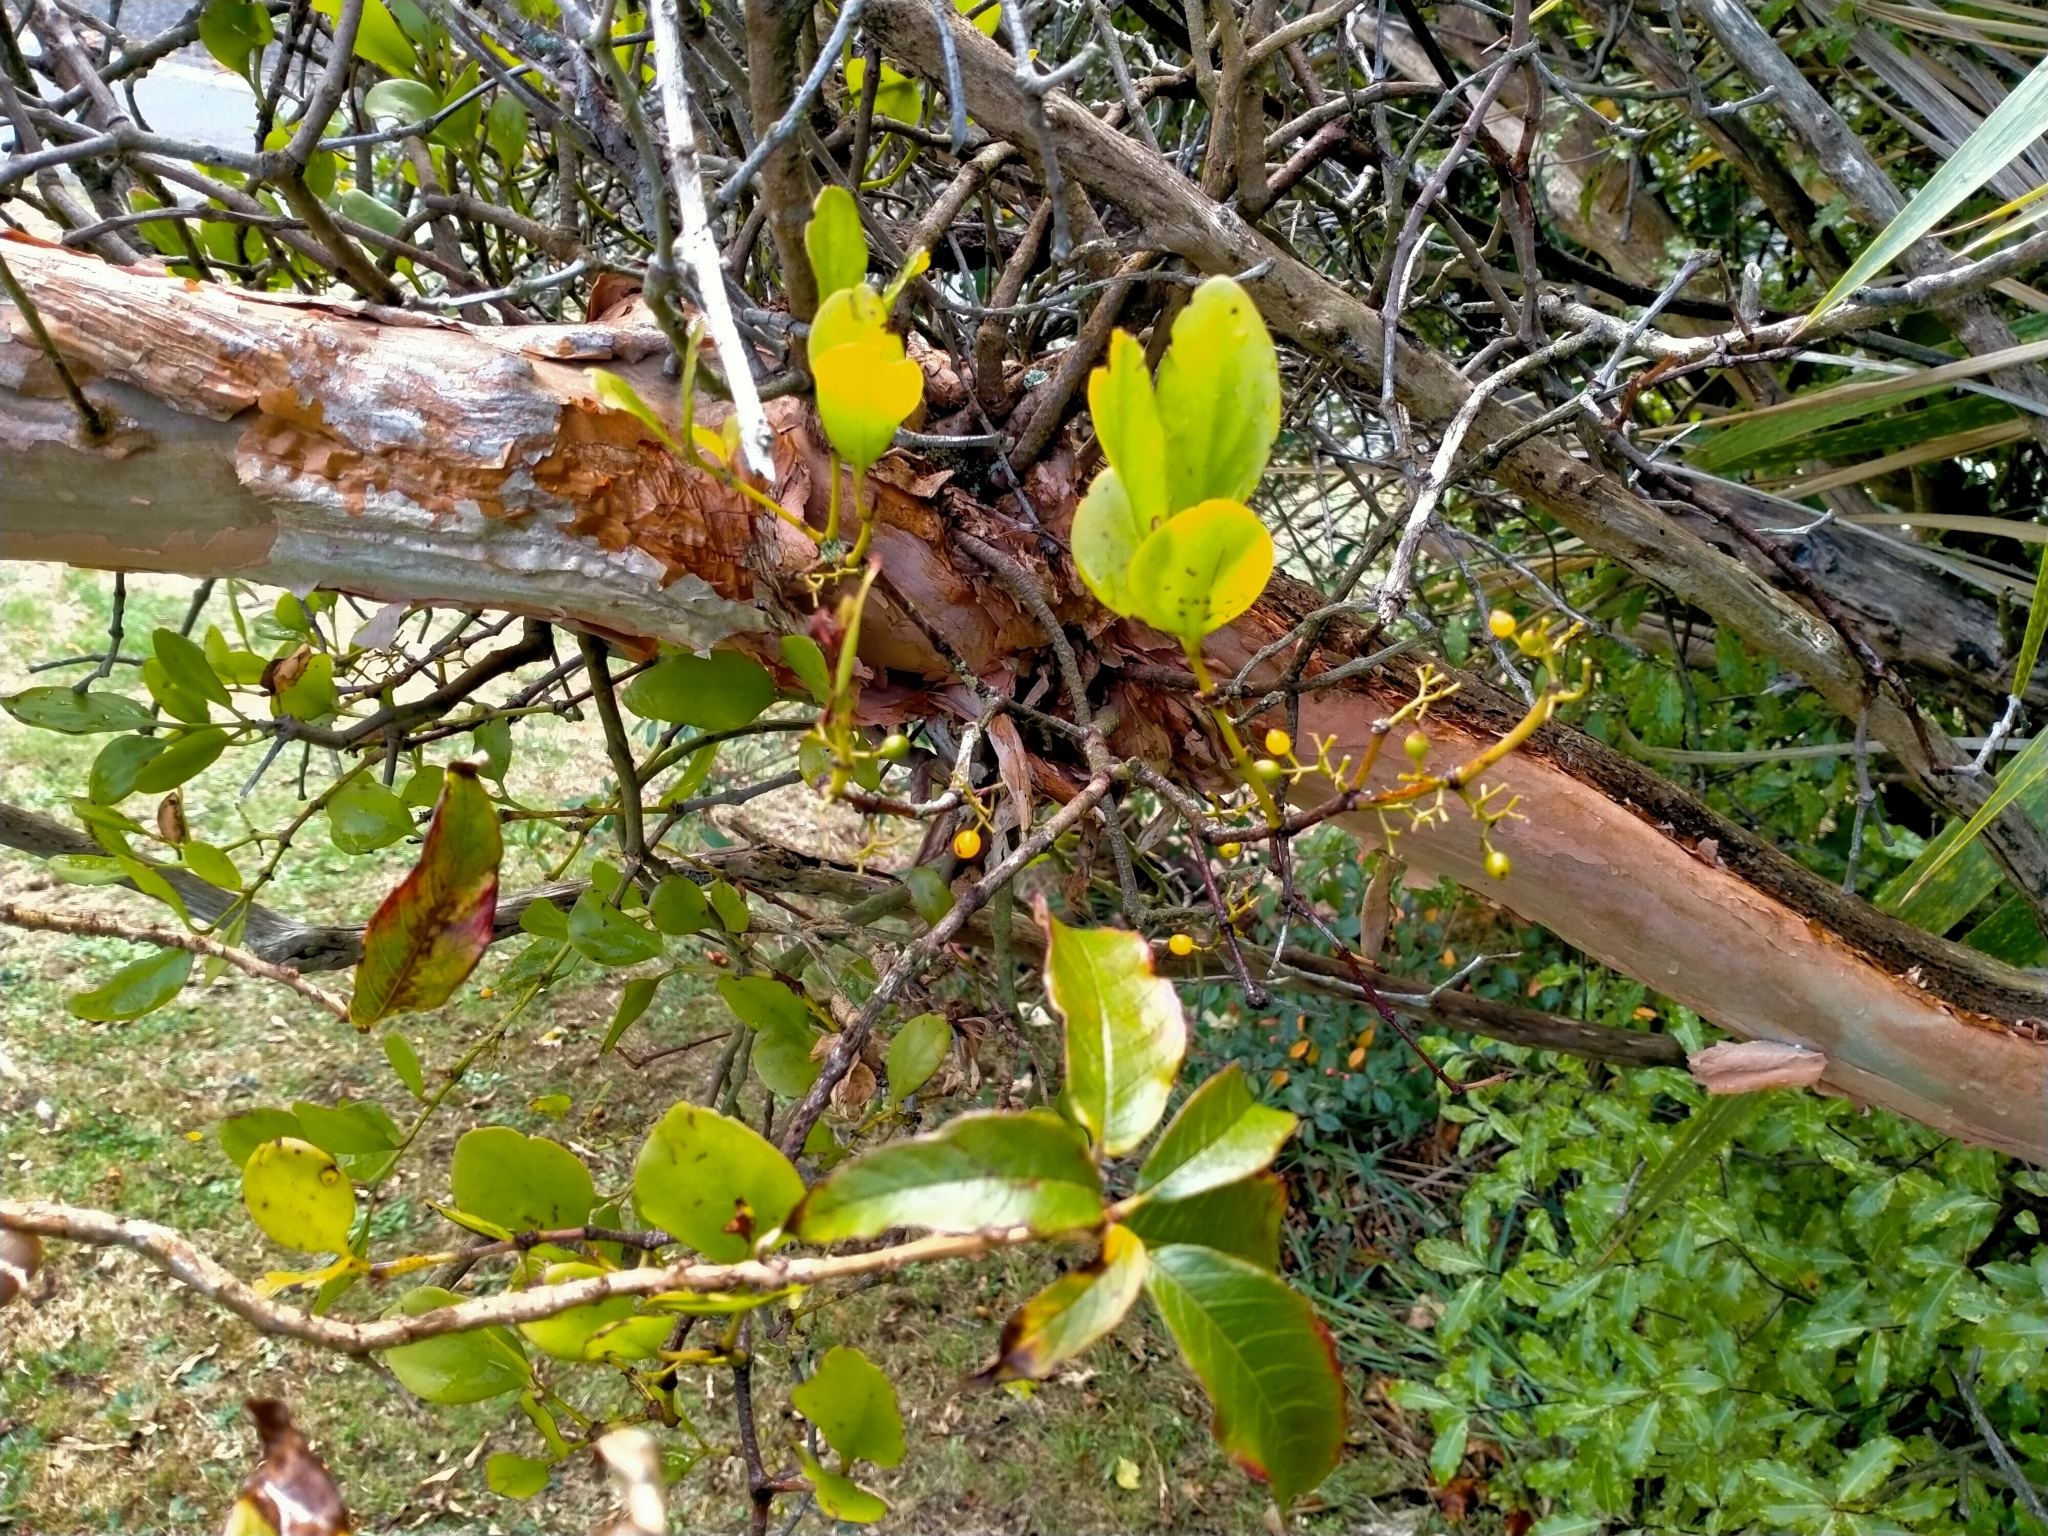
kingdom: Plantae
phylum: Tracheophyta
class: Magnoliopsida
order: Santalales
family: Loranthaceae
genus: Ileostylus
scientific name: Ileostylus micranthus
